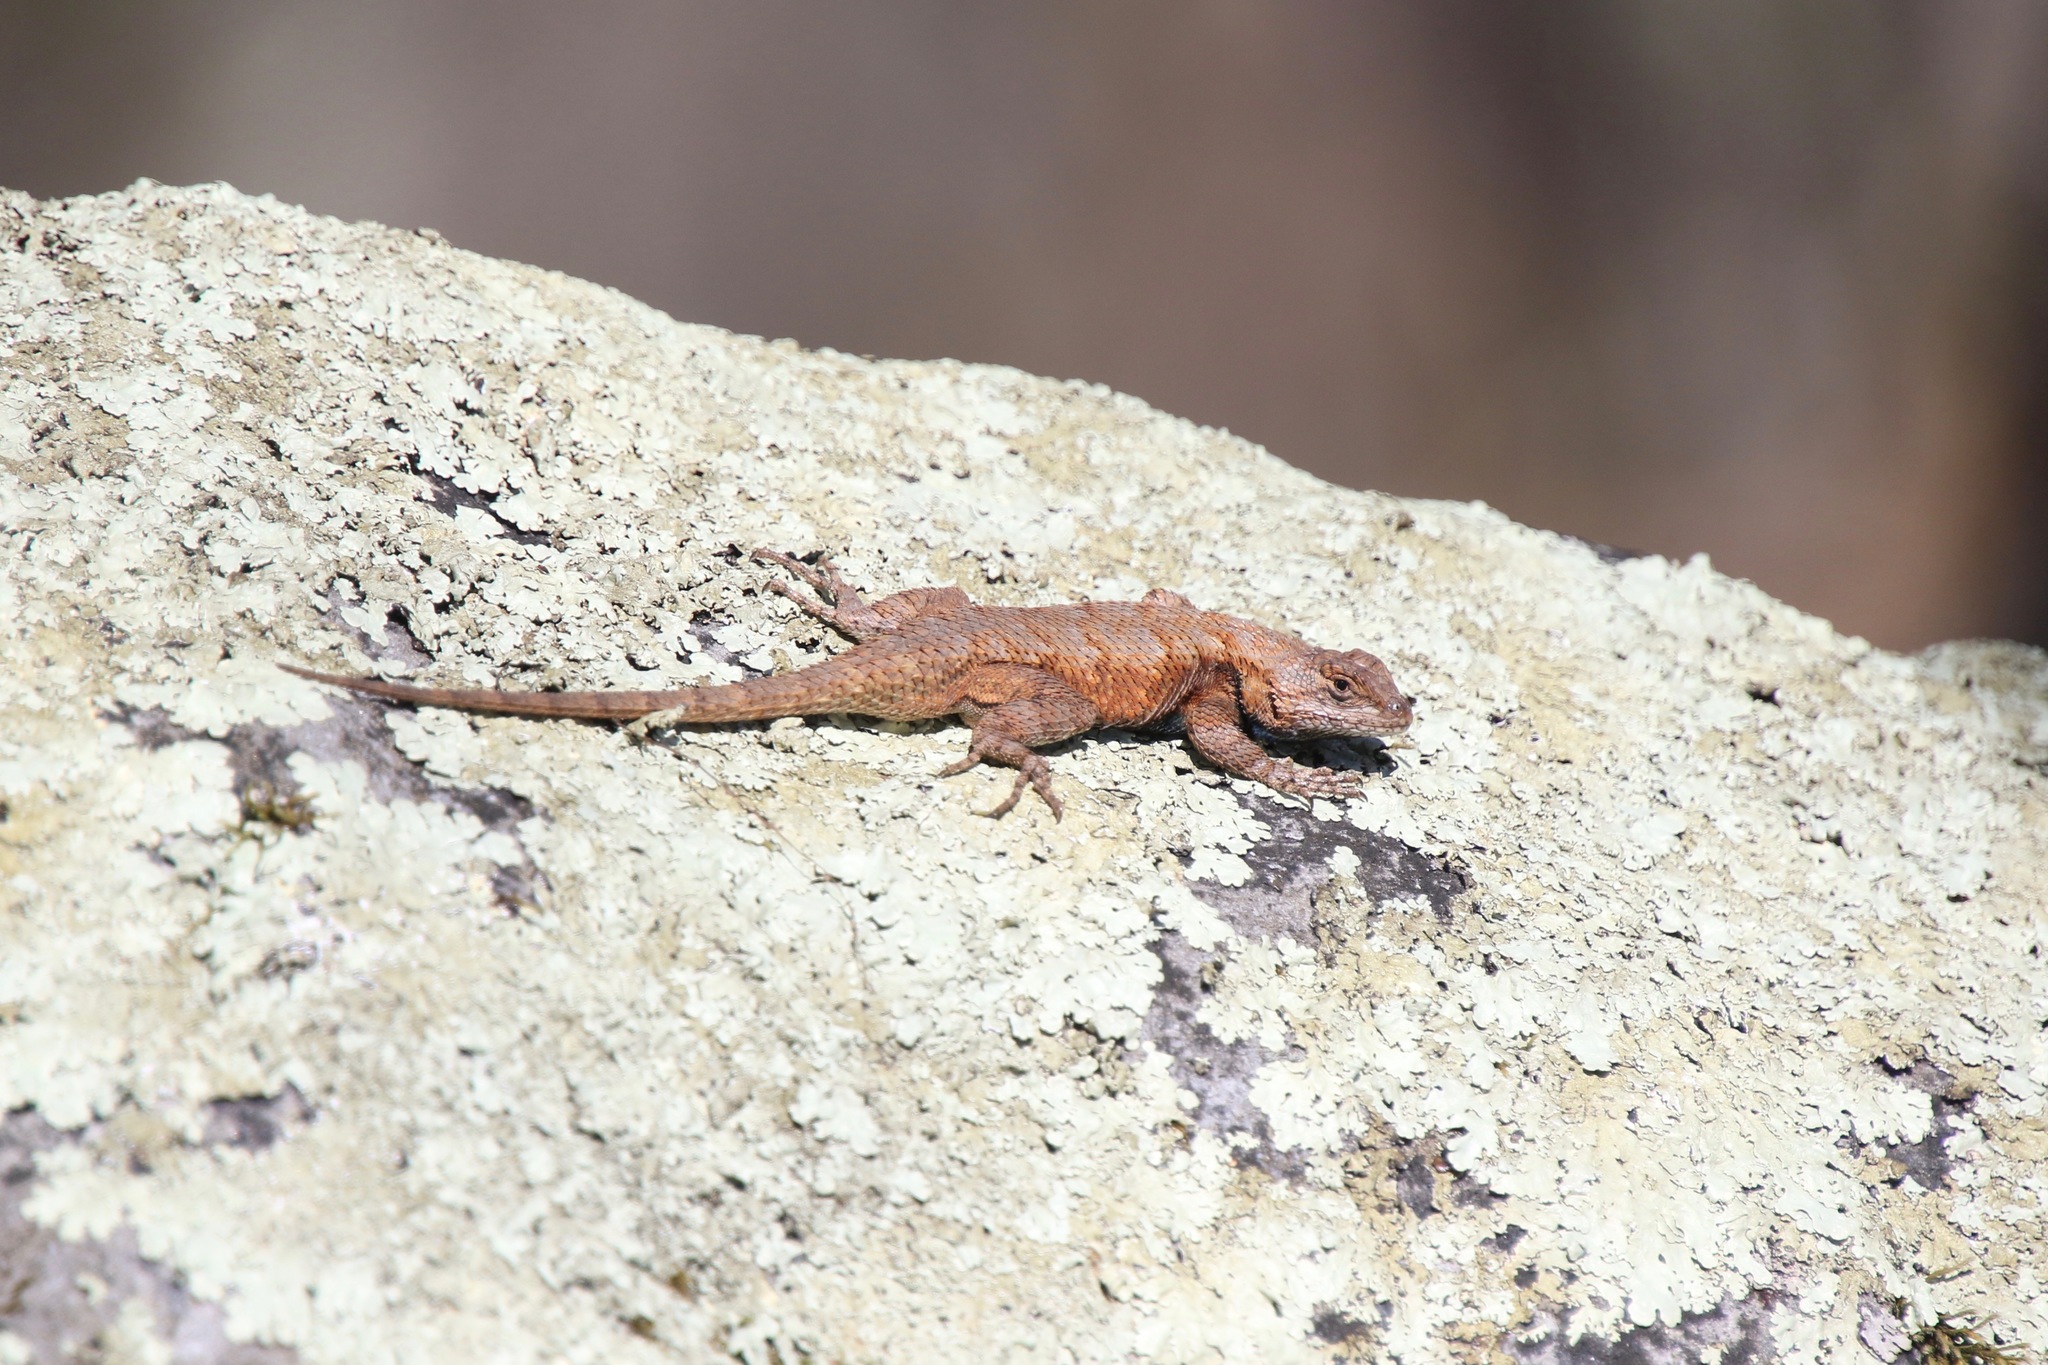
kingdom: Animalia
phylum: Chordata
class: Squamata
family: Phrynosomatidae
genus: Sceloporus
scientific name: Sceloporus undulatus
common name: Eastern fence lizard
